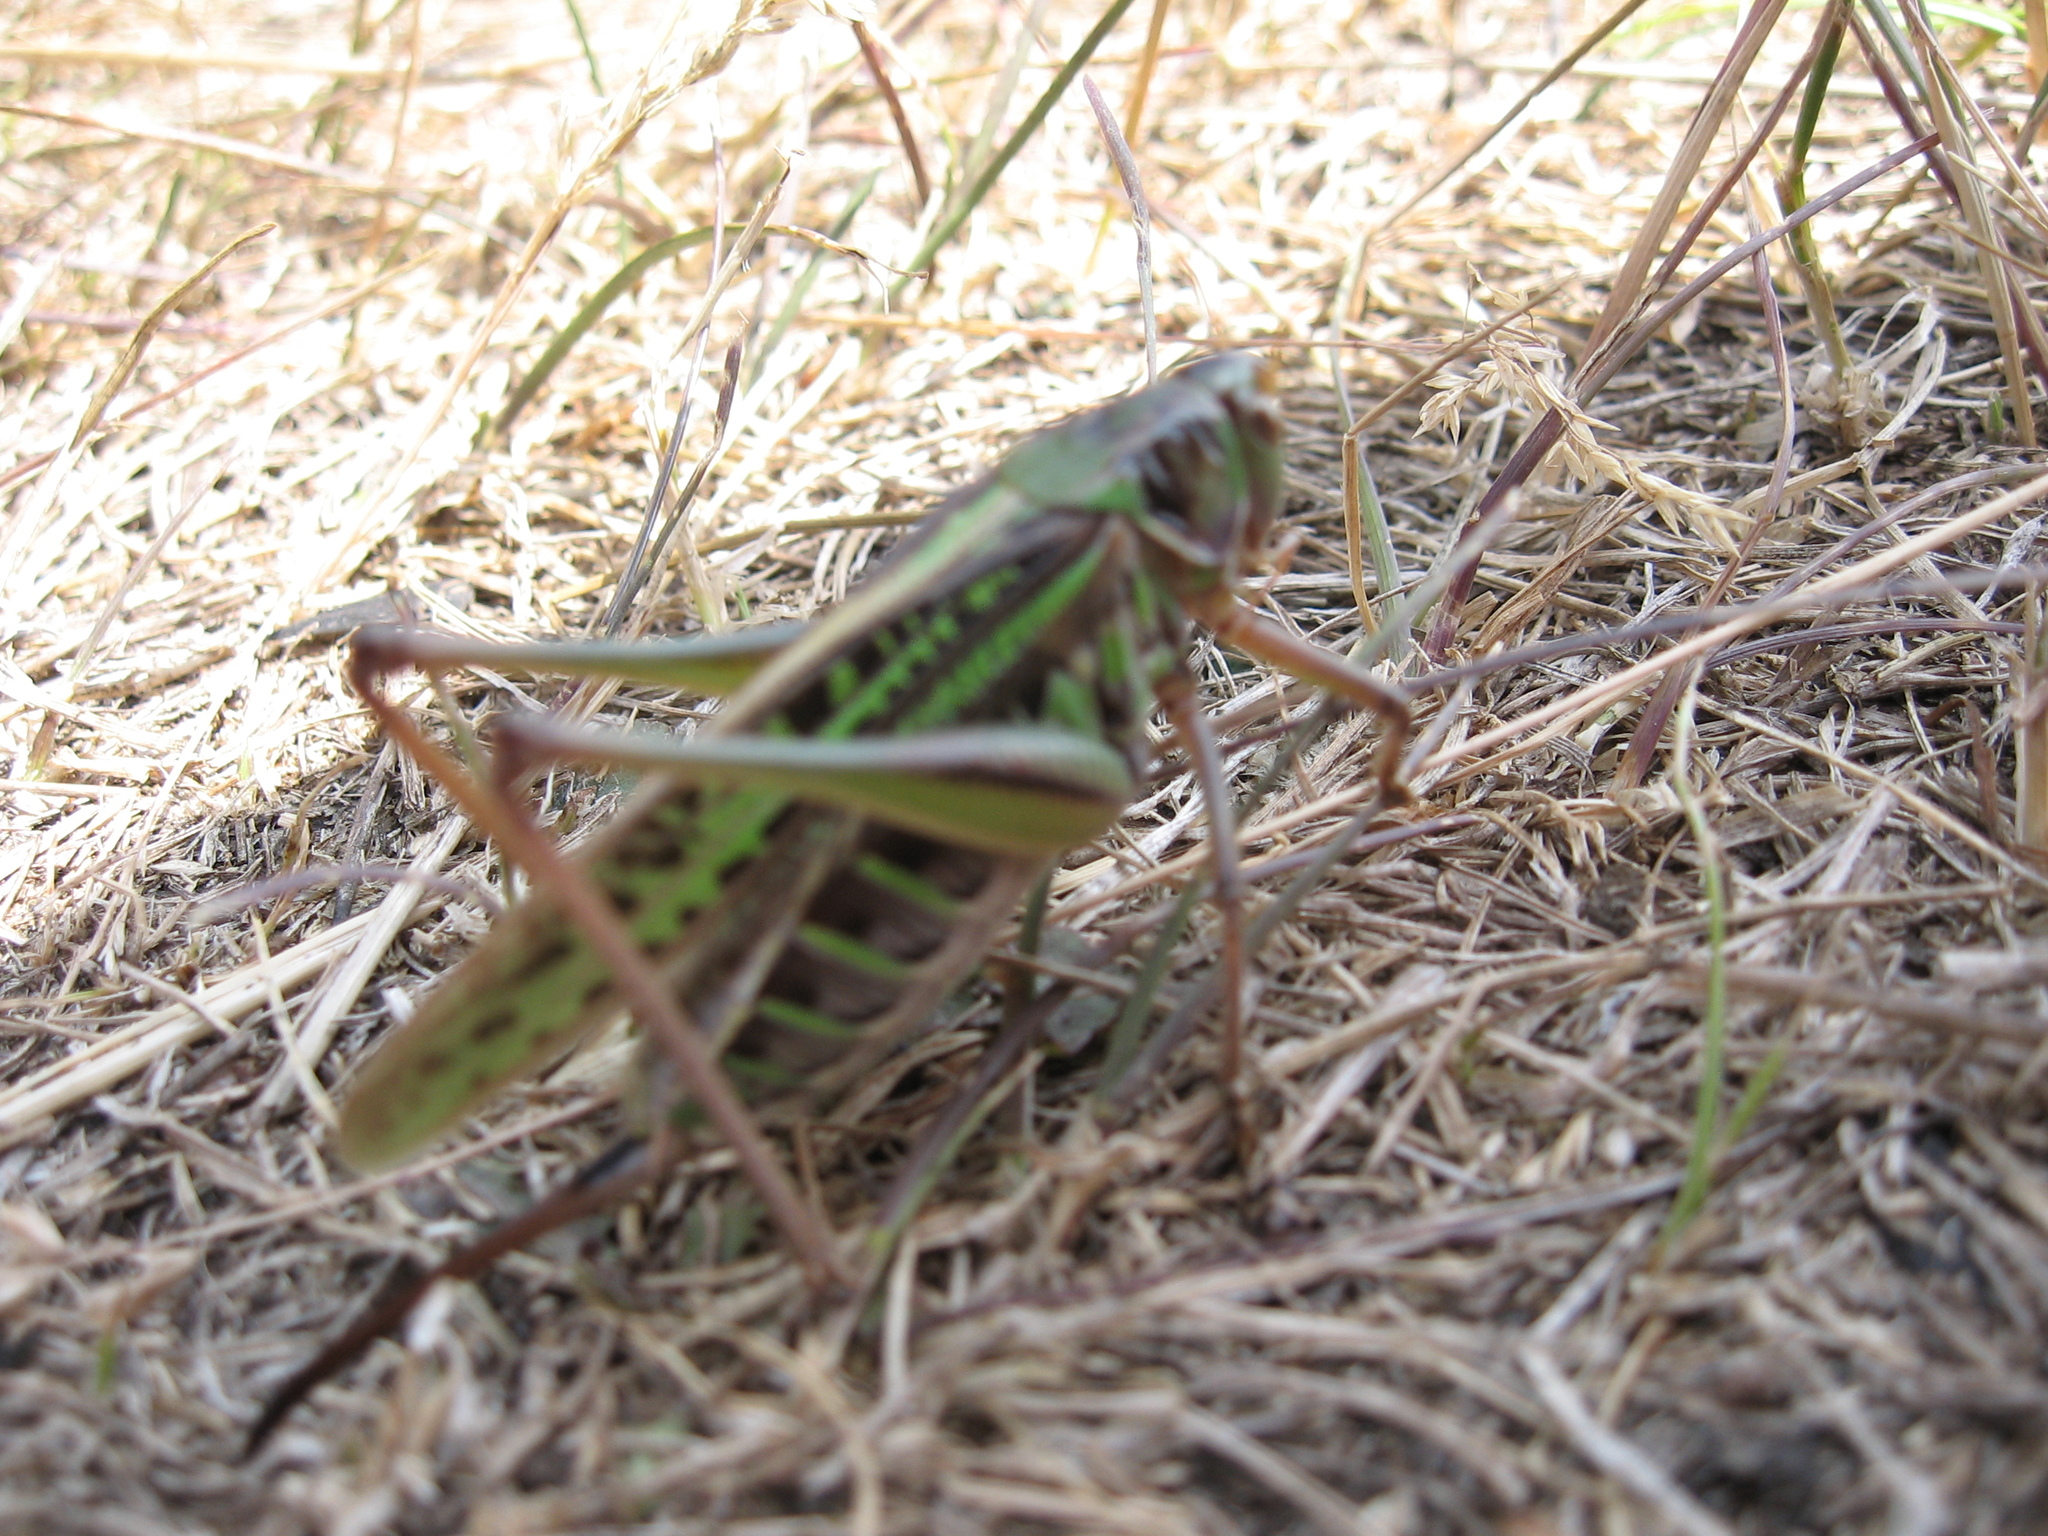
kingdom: Animalia
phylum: Arthropoda
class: Insecta
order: Orthoptera
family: Tettigoniidae
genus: Gampsocleis
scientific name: Gampsocleis sedakovii
